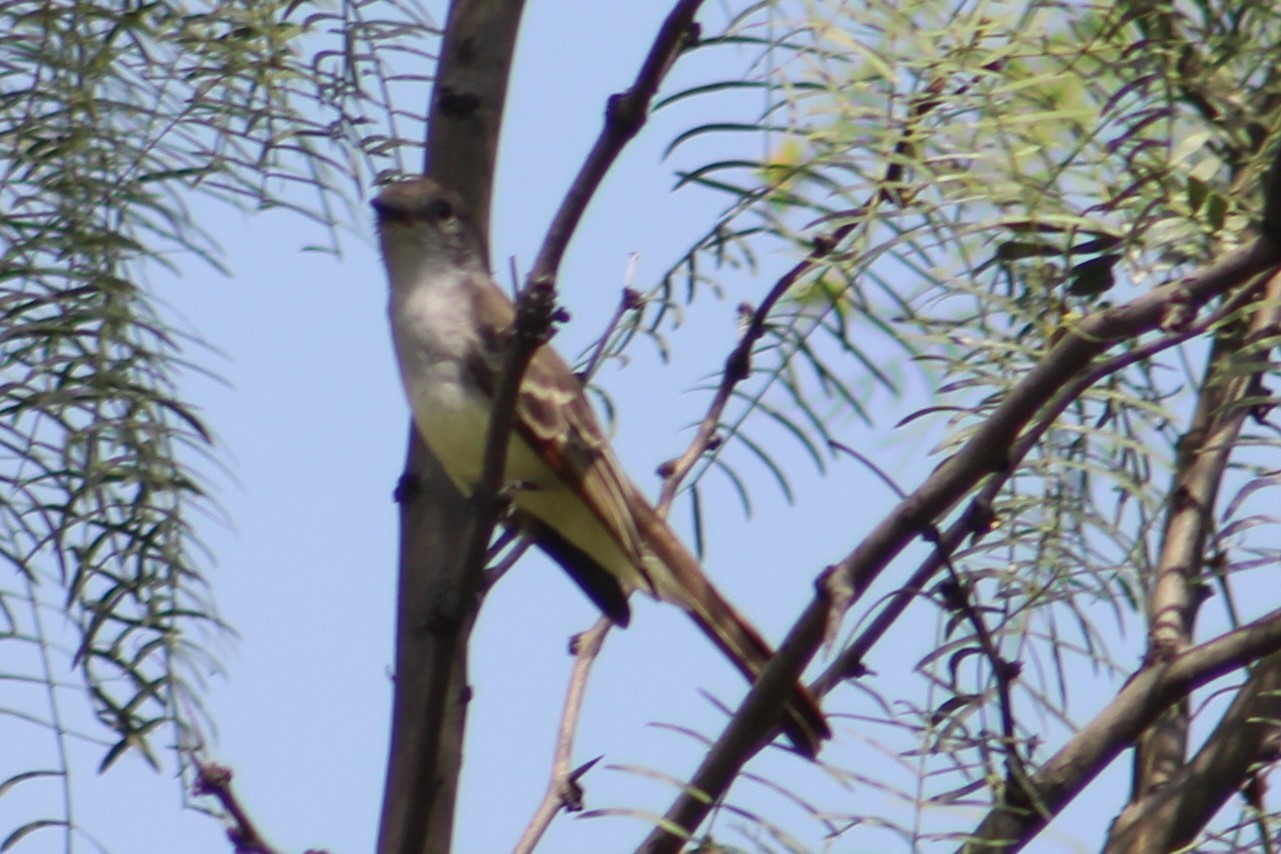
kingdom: Animalia
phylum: Chordata
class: Aves
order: Passeriformes
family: Tyrannidae
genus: Myiarchus
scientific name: Myiarchus cinerascens
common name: Ash-throated flycatcher
